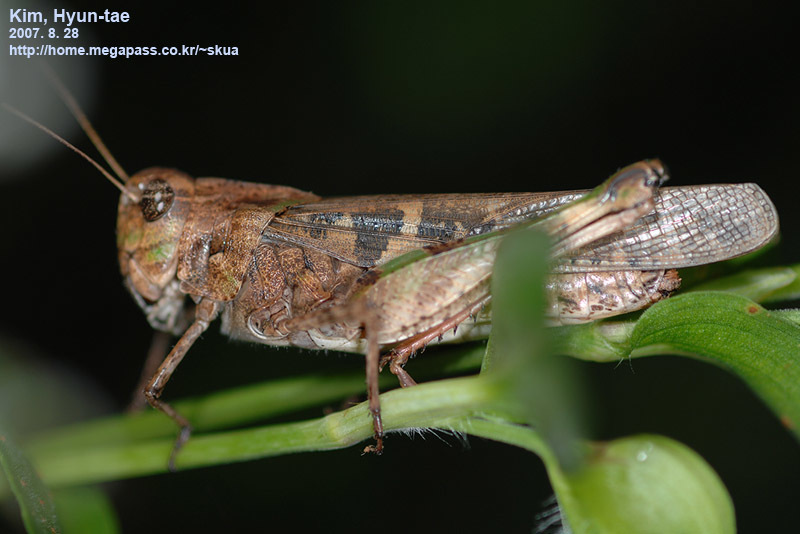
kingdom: Animalia
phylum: Arthropoda
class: Insecta
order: Orthoptera
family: Acrididae
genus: Oedaleus
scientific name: Oedaleus infernalis
